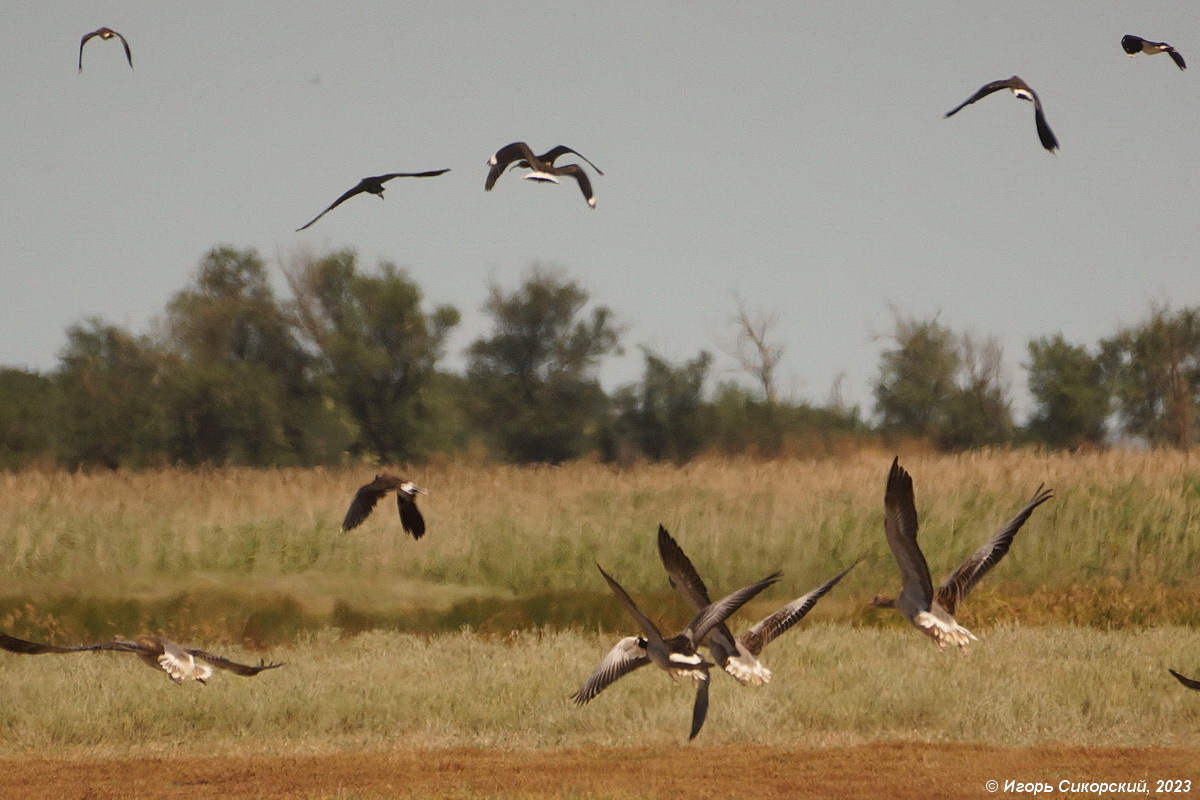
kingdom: Animalia
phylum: Chordata
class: Aves
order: Anseriformes
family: Anatidae
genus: Branta
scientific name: Branta leucopsis
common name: Barnacle goose
